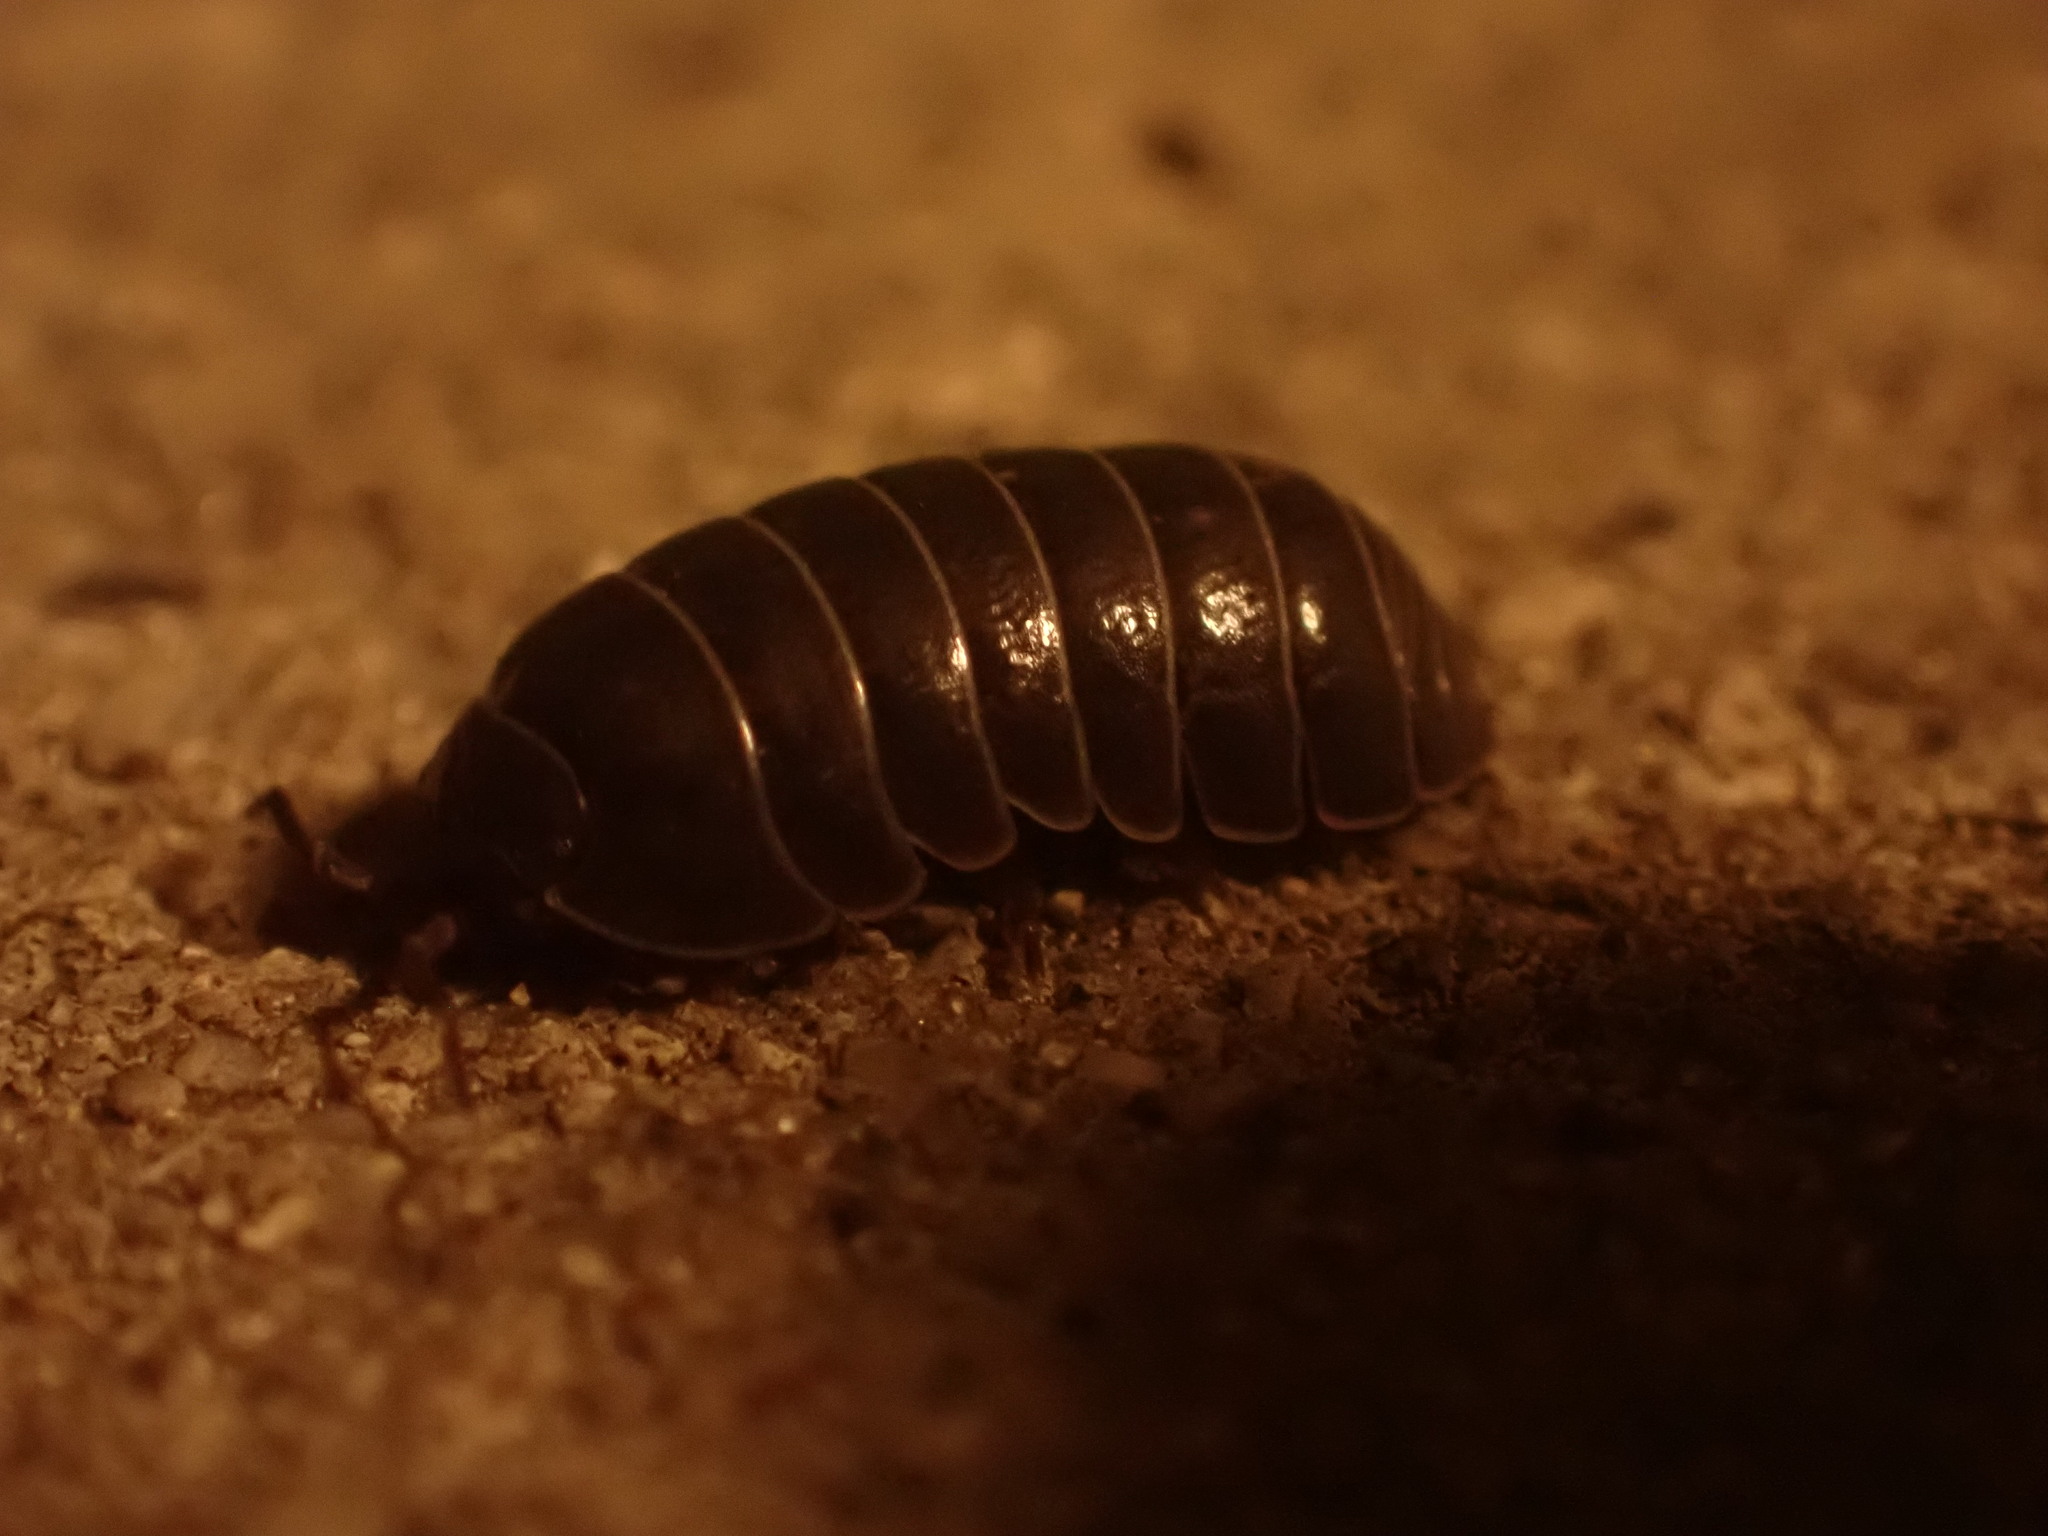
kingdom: Animalia
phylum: Arthropoda
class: Malacostraca
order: Isopoda
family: Armadillidiidae
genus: Armadillidium
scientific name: Armadillidium vulgare
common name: Common pill woodlouse
